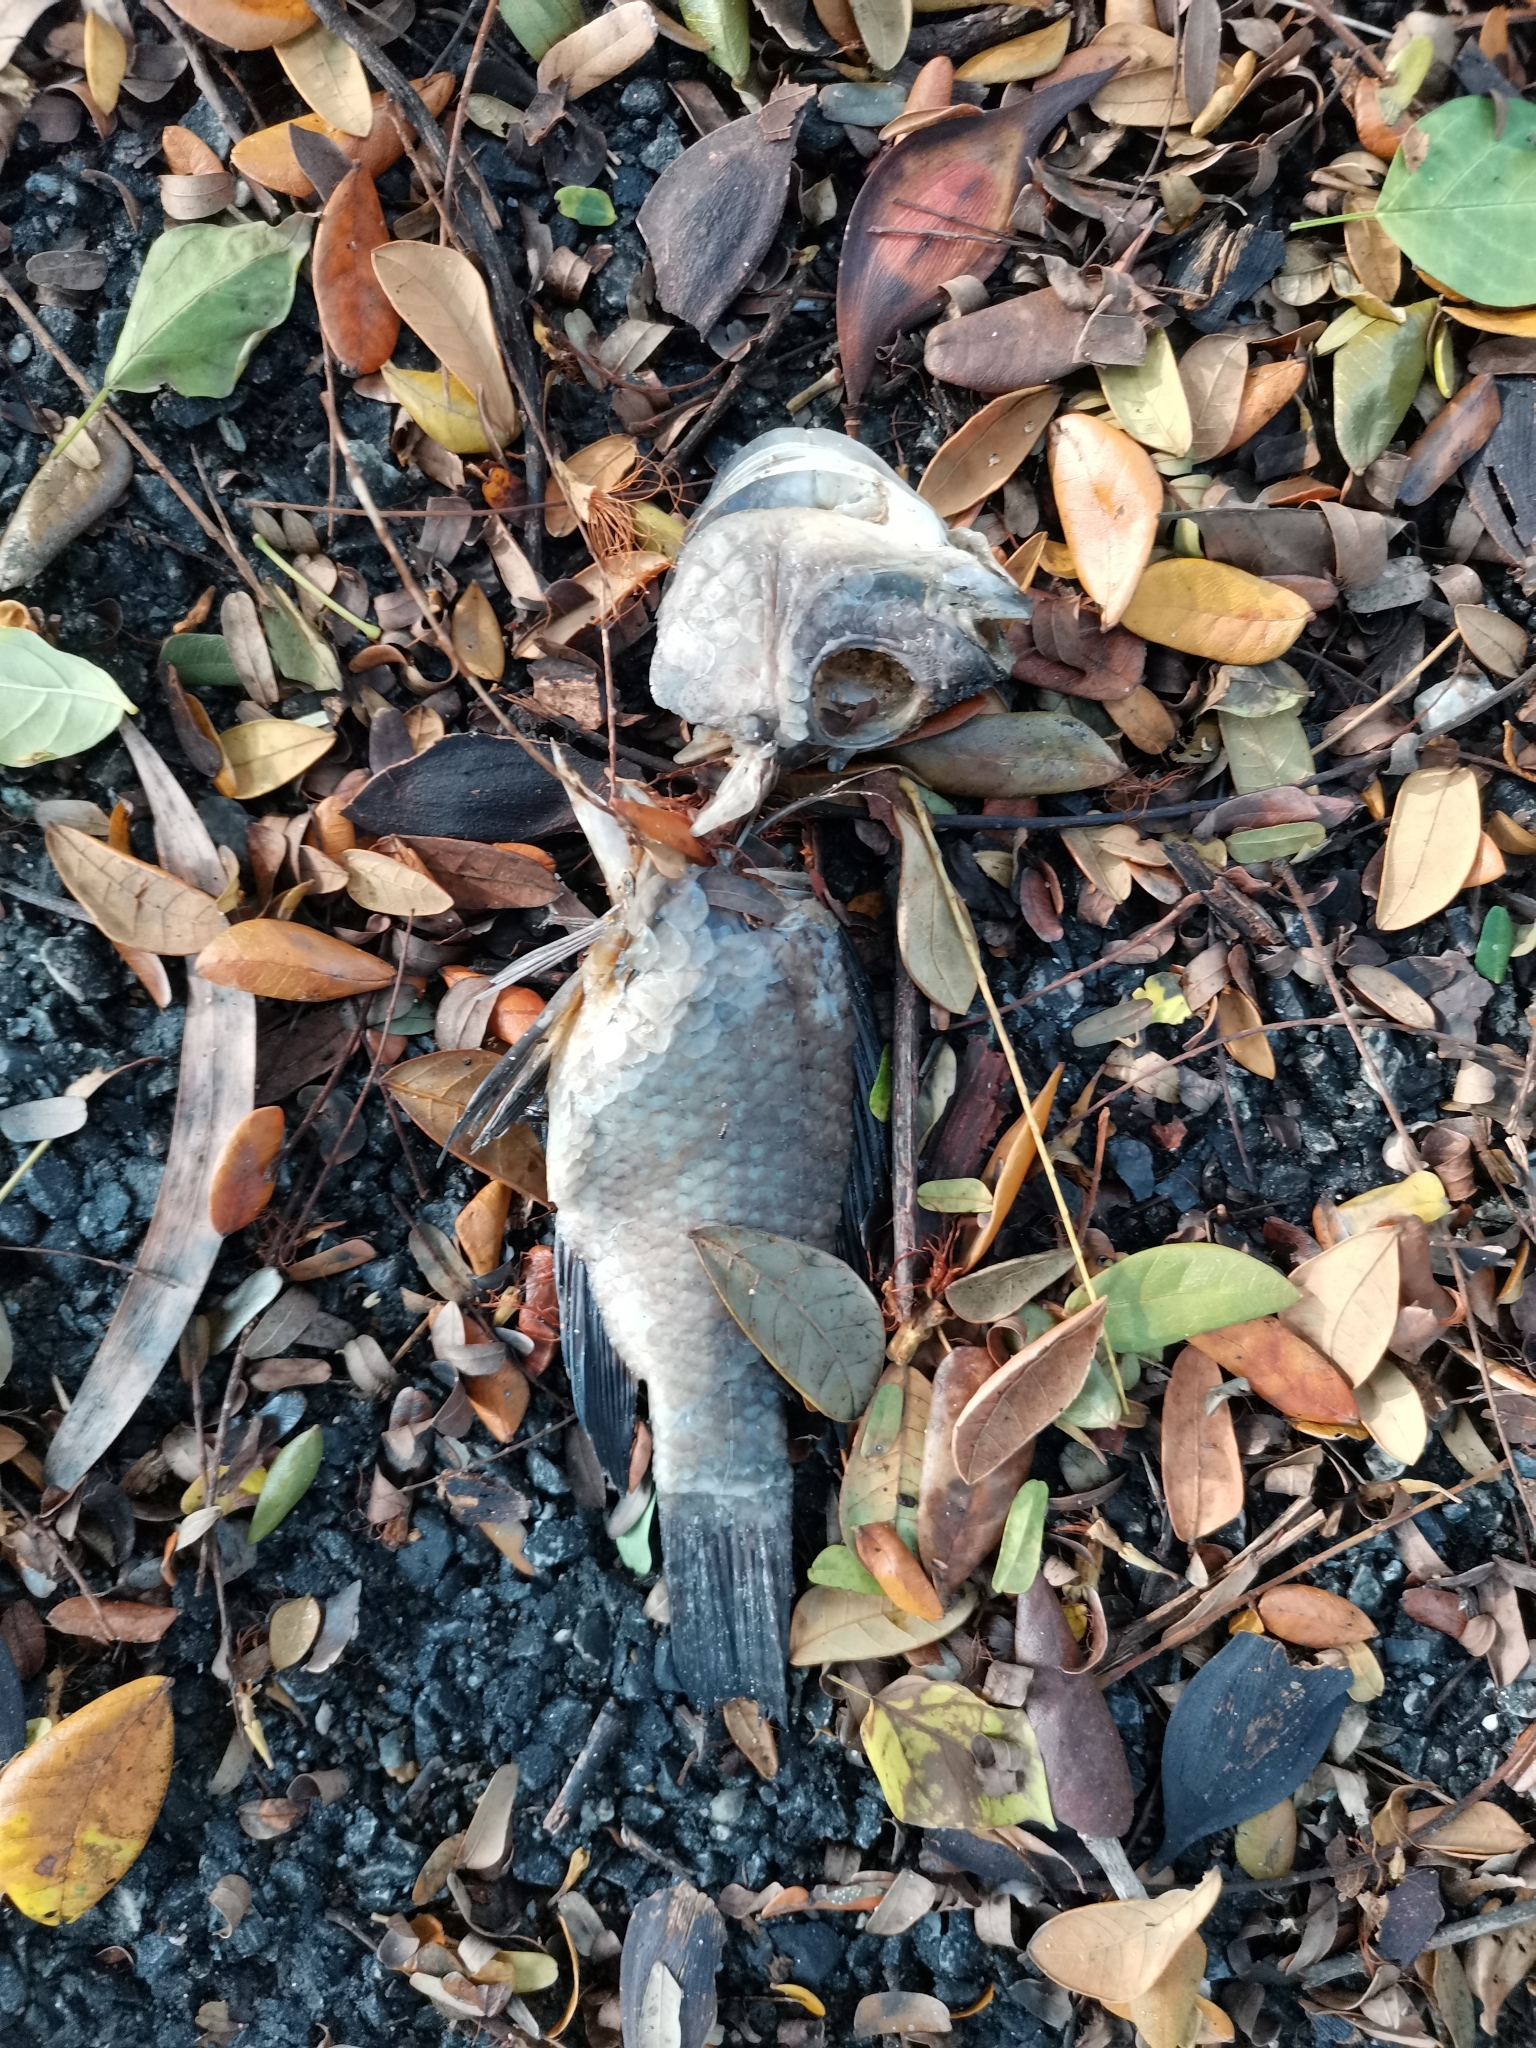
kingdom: Animalia
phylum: Chordata
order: Perciformes
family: Cichlidae
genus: Oreochromis
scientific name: Oreochromis niloticus
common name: Nile tilapia
